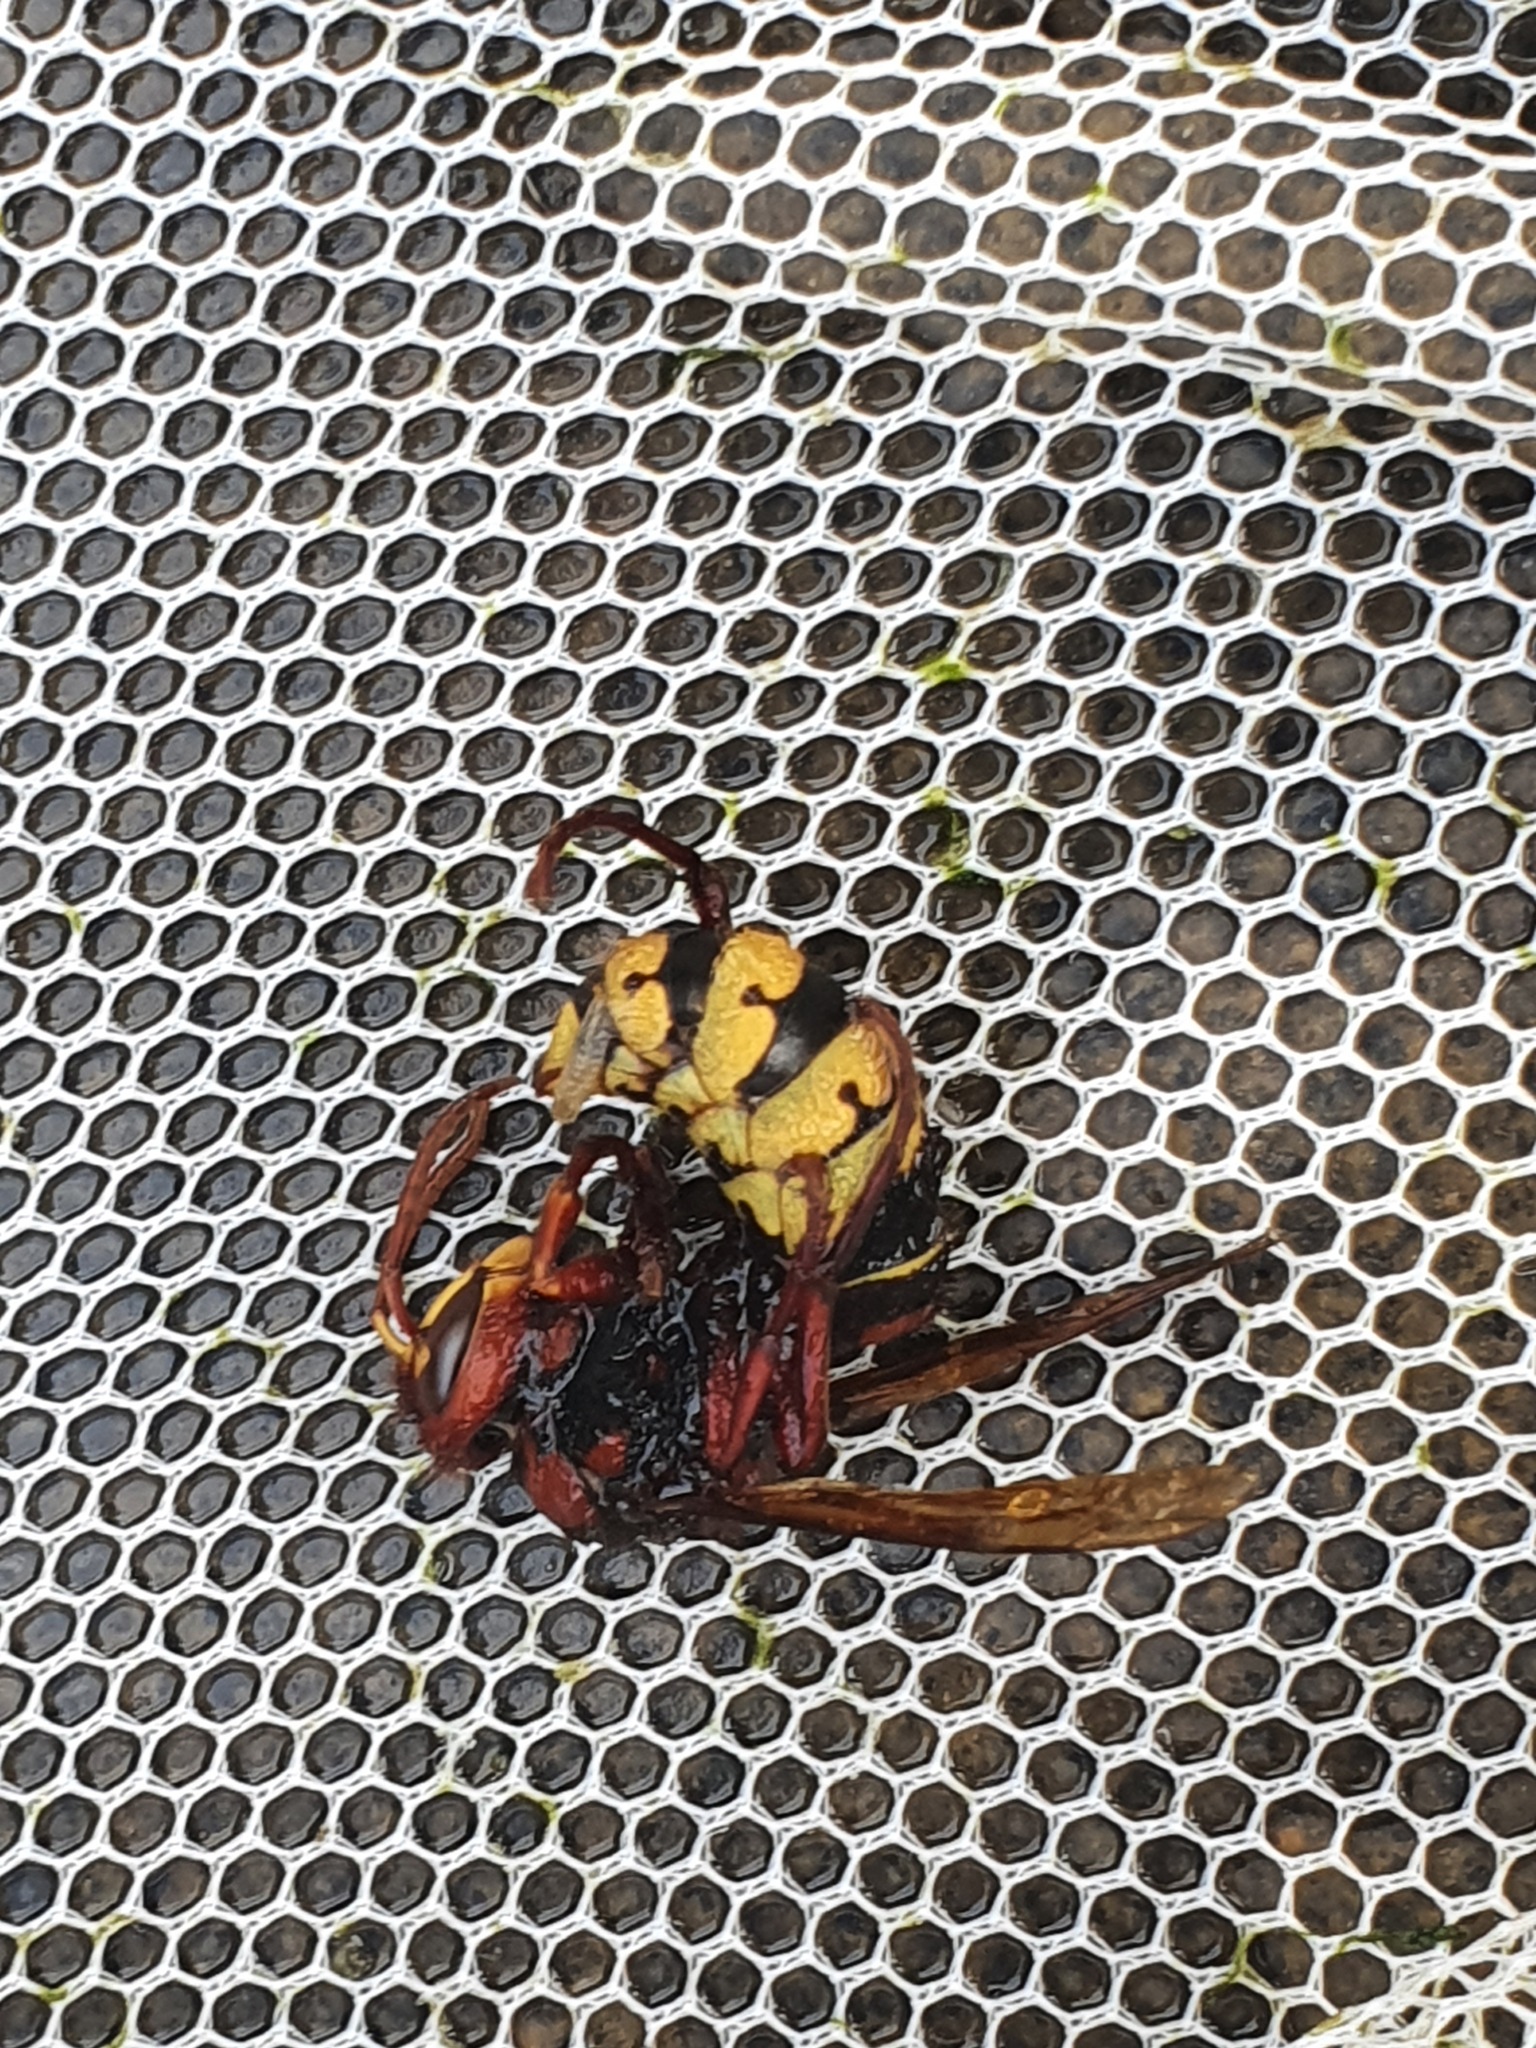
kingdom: Animalia
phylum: Arthropoda
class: Insecta
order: Hymenoptera
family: Vespidae
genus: Vespa
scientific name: Vespa crabro
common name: Hornet
